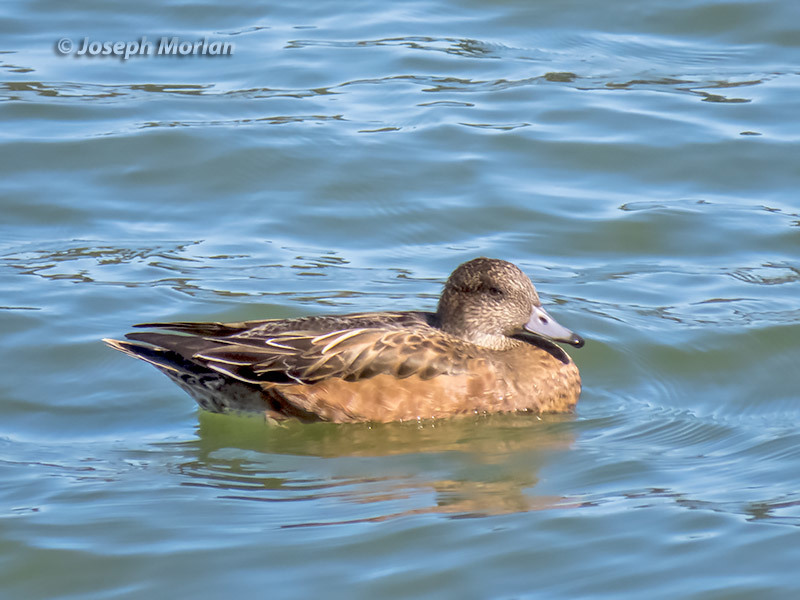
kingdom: Animalia
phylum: Chordata
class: Aves
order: Anseriformes
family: Anatidae
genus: Mareca
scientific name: Mareca americana
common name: American wigeon
